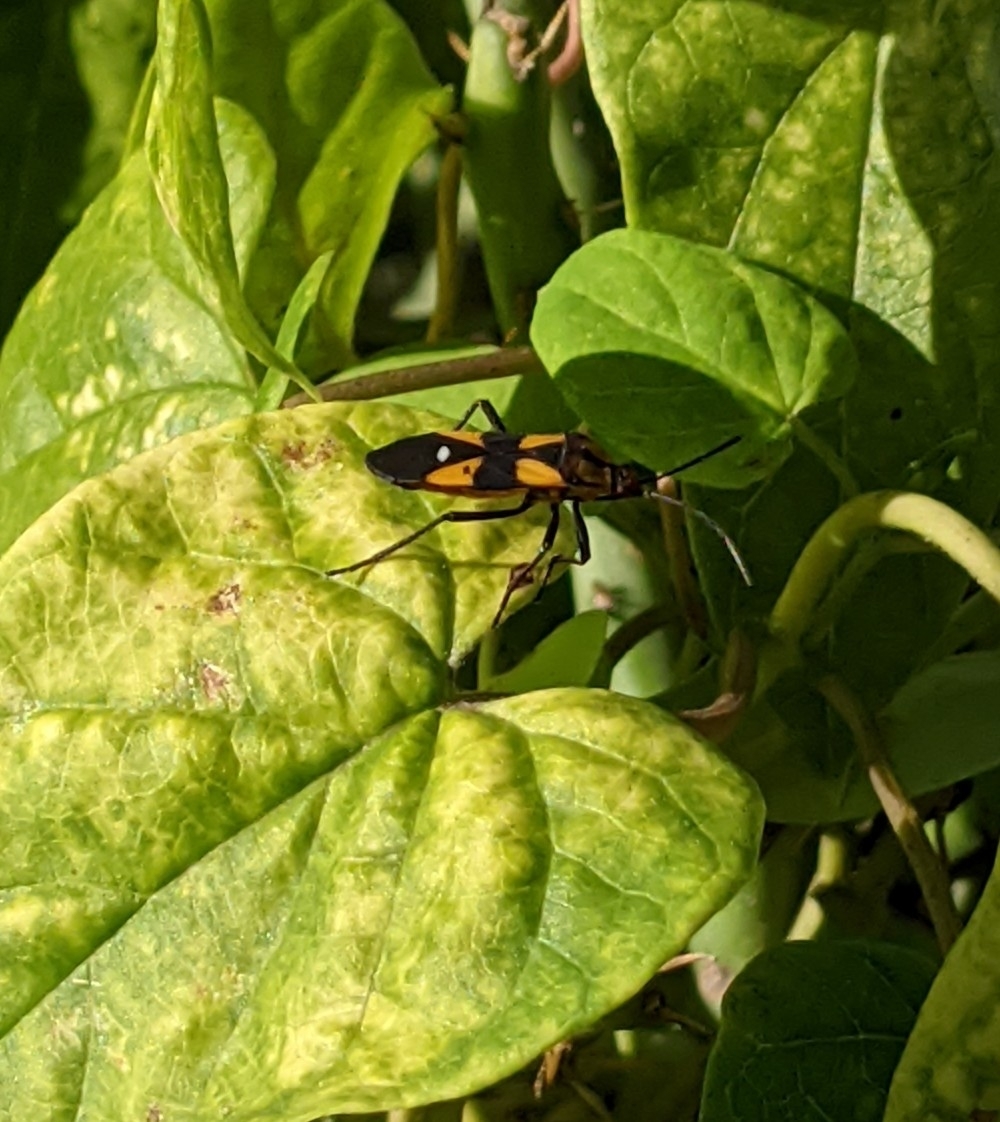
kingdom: Animalia
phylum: Arthropoda
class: Insecta
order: Hemiptera
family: Lygaeidae
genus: Oncopeltus
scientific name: Oncopeltus sexmaculatus
